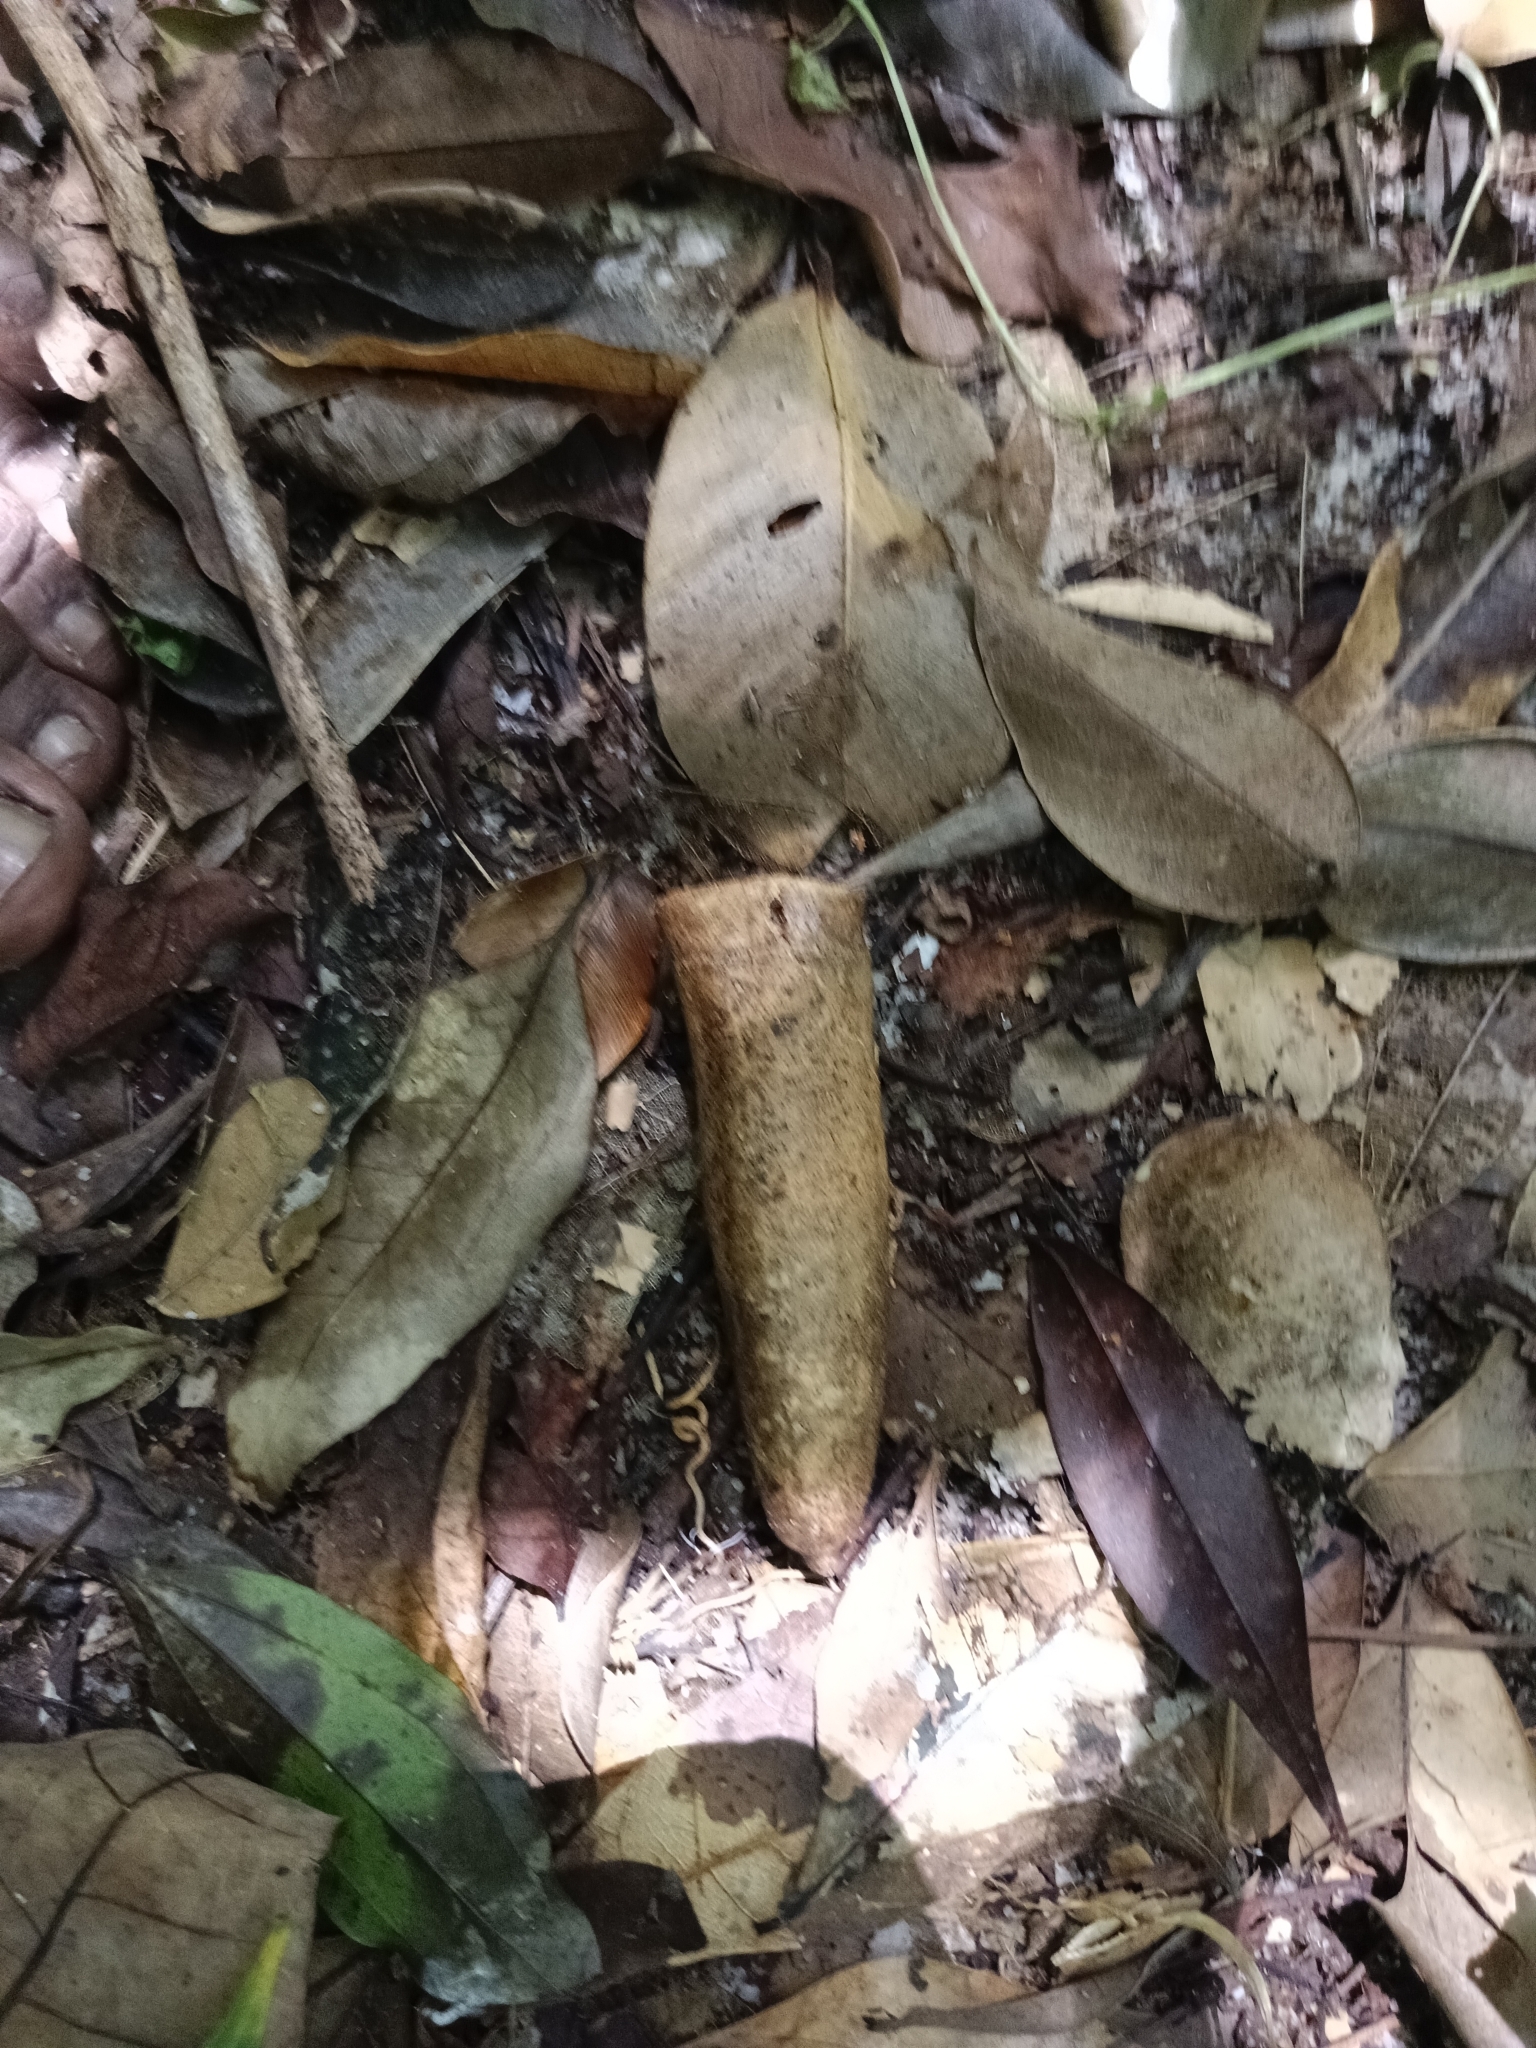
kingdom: Plantae
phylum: Tracheophyta
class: Magnoliopsida
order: Cucurbitales
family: Cucurbitaceae
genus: Zanonia
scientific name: Zanonia indica
